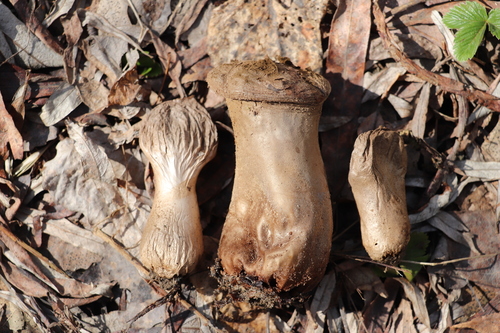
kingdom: Fungi
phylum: Basidiomycota
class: Agaricomycetes
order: Agaricales
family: Lycoperdaceae
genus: Lycoperdon
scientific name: Lycoperdon excipuliforme
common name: Pestle puffball
